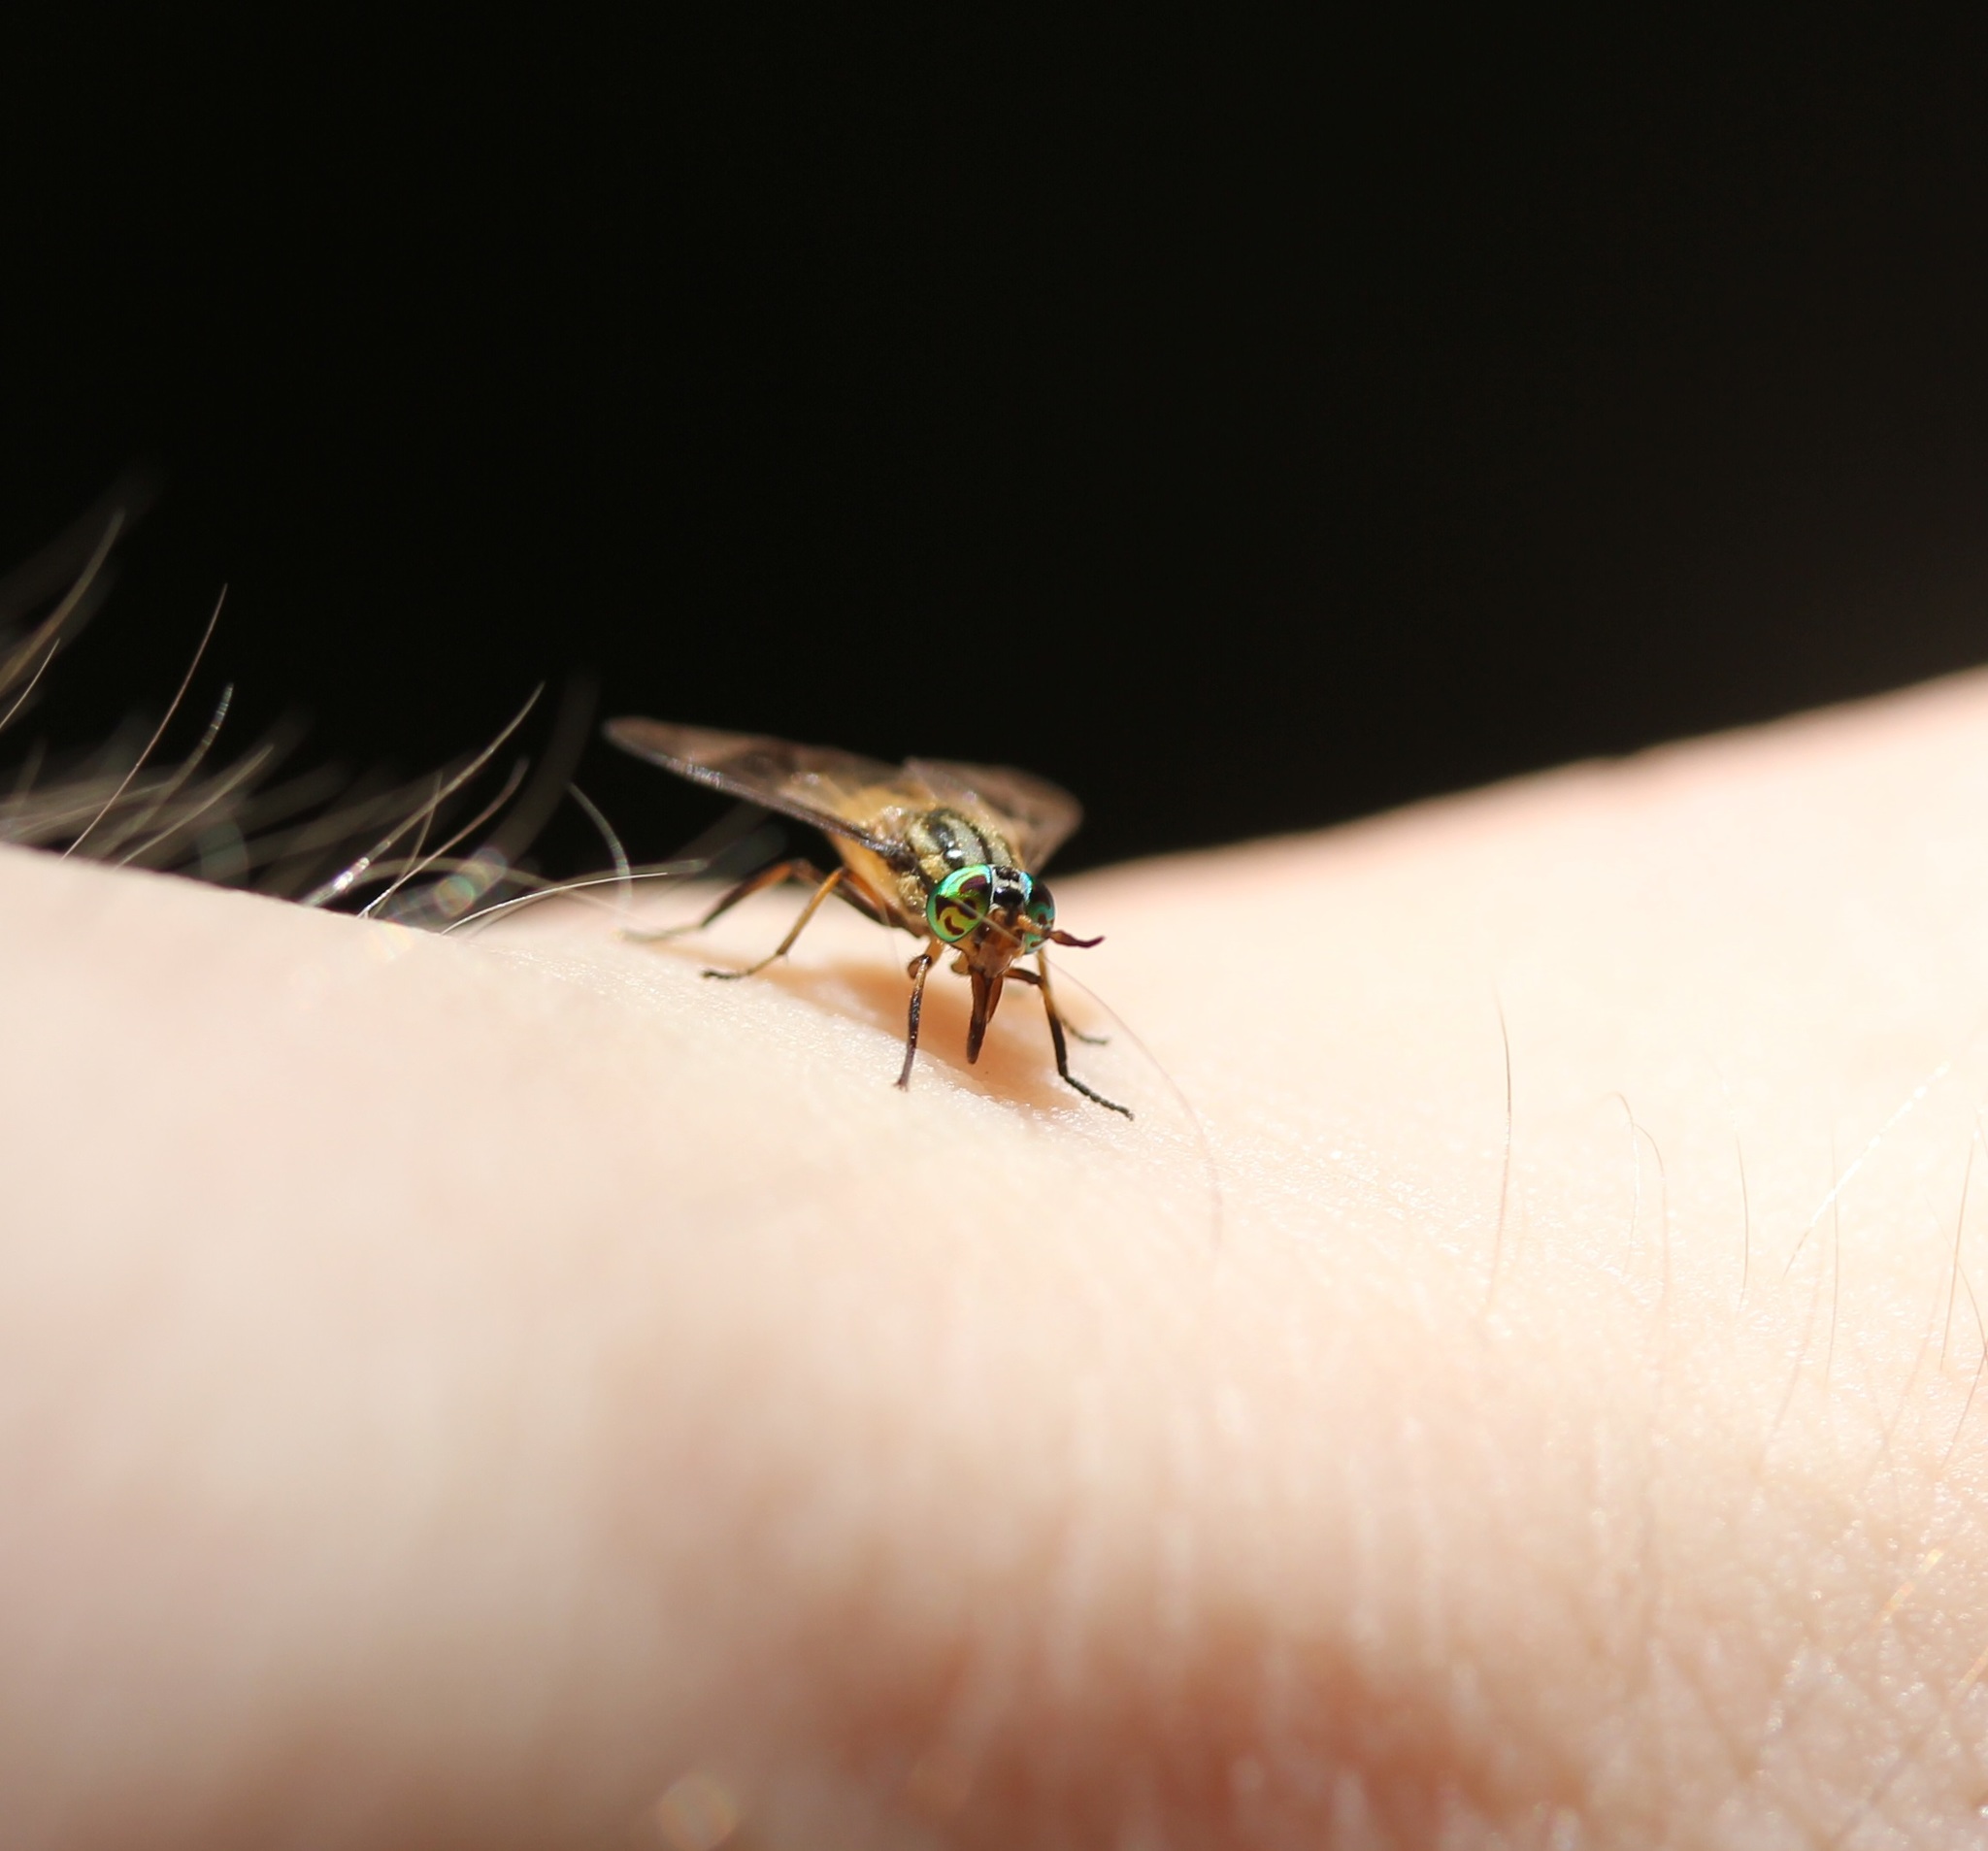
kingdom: Animalia
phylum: Arthropoda
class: Insecta
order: Diptera
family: Tabanidae
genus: Chrysops
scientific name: Chrysops geminatus
